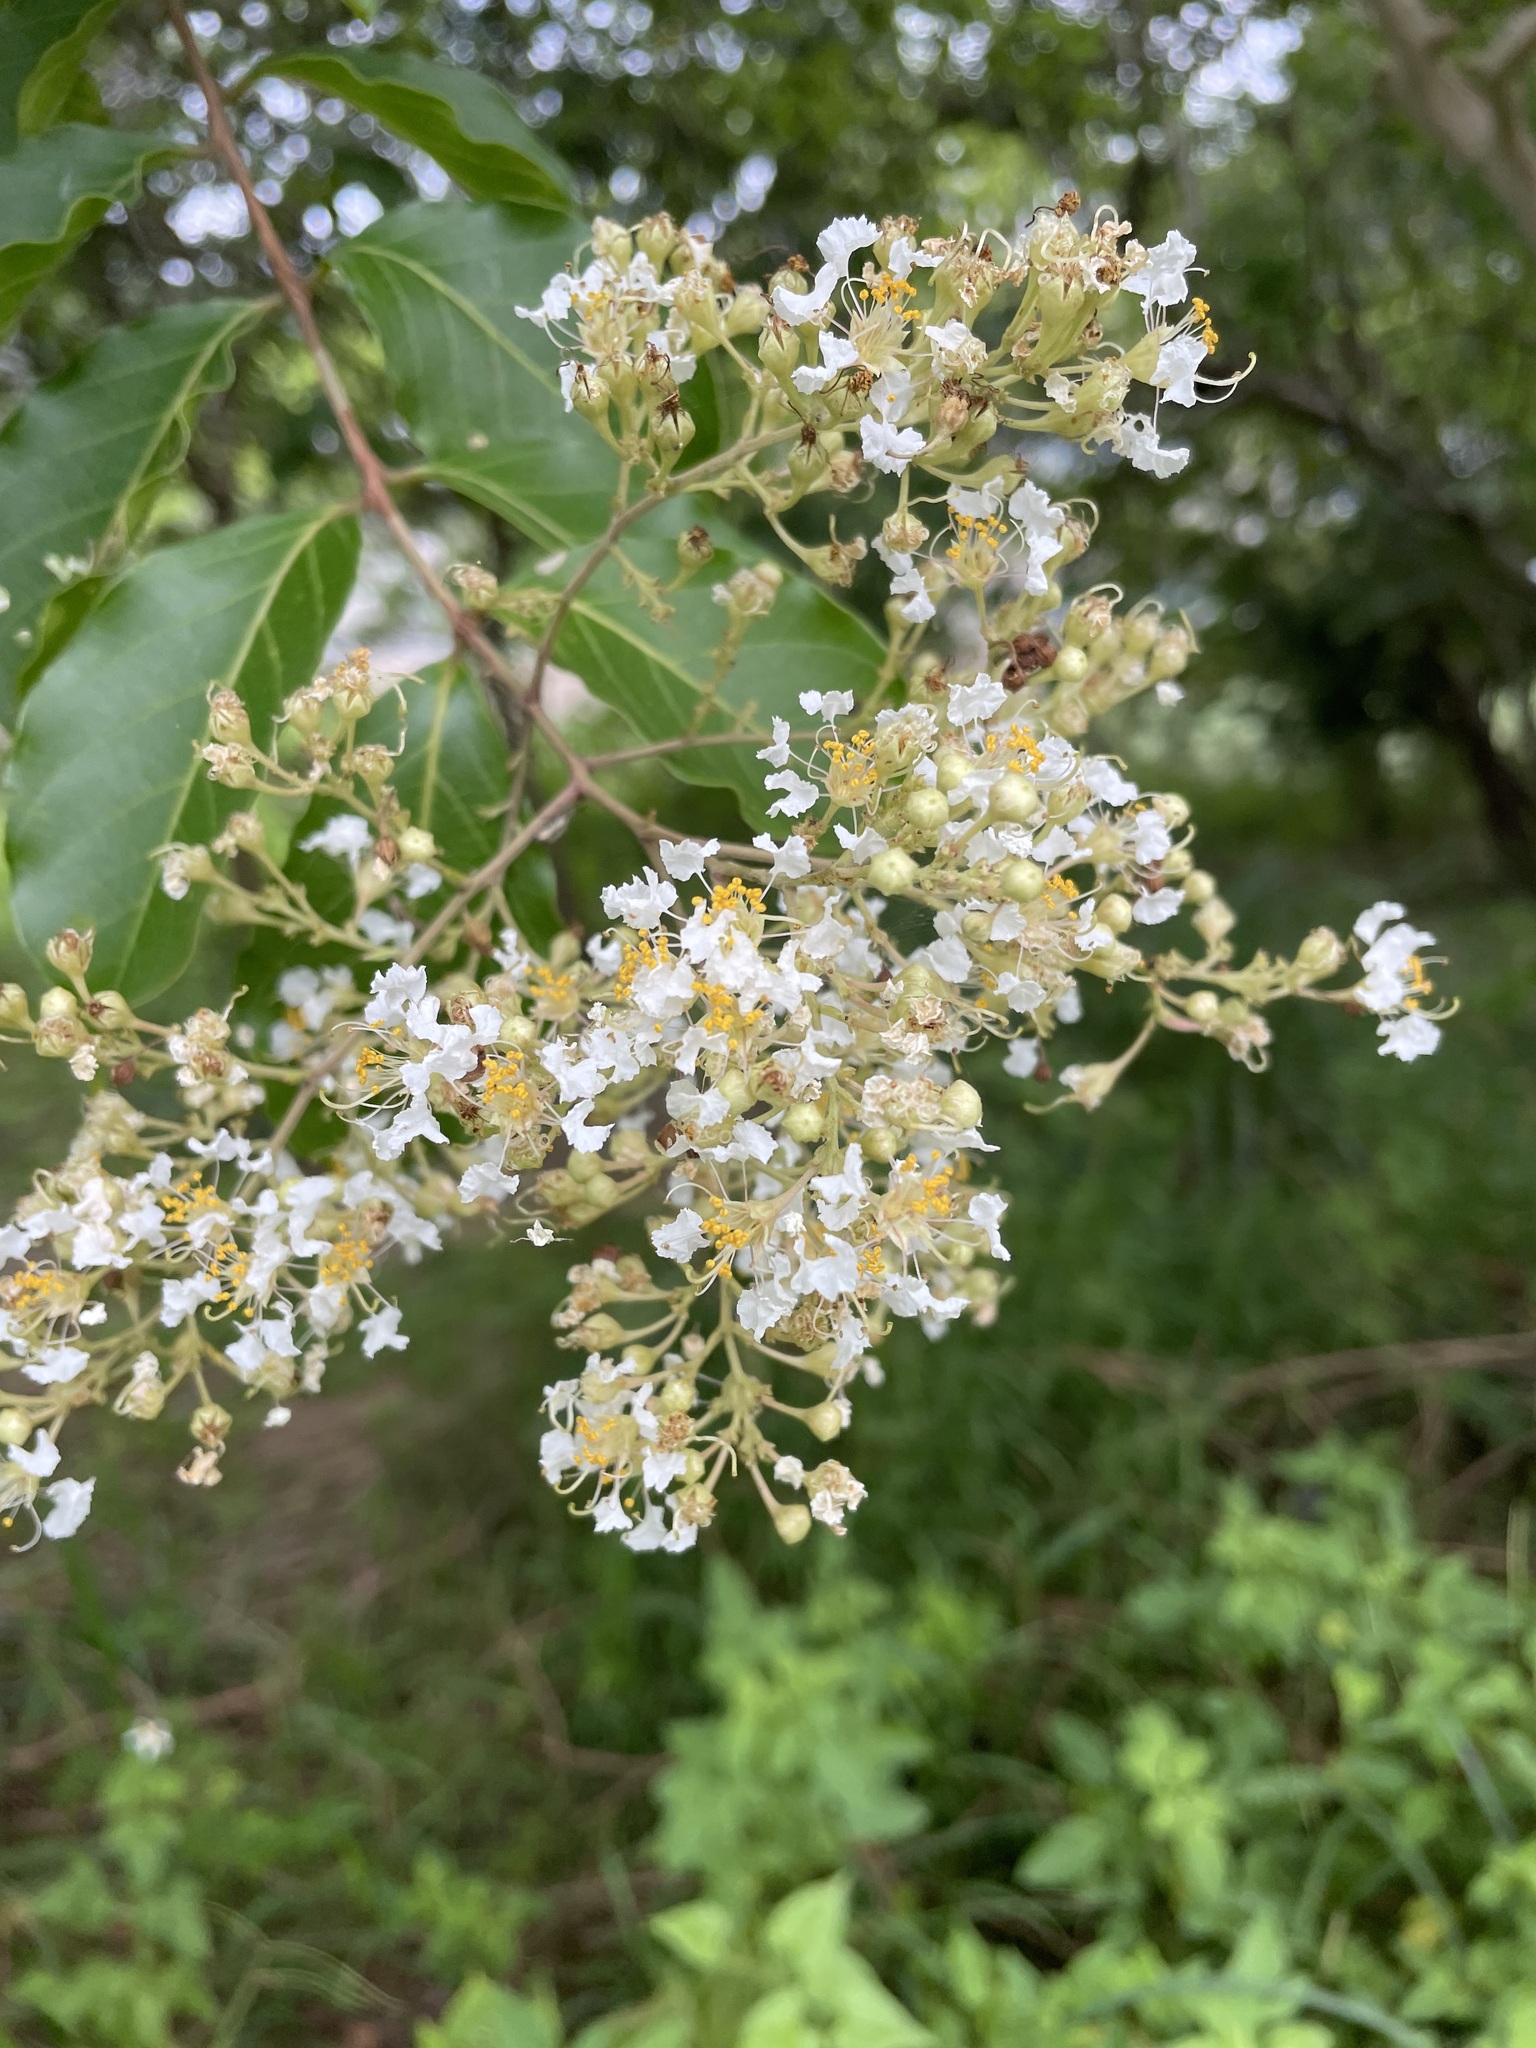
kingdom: Plantae
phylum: Tracheophyta
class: Magnoliopsida
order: Myrtales
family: Lythraceae
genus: Lagerstroemia
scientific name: Lagerstroemia subcostata
